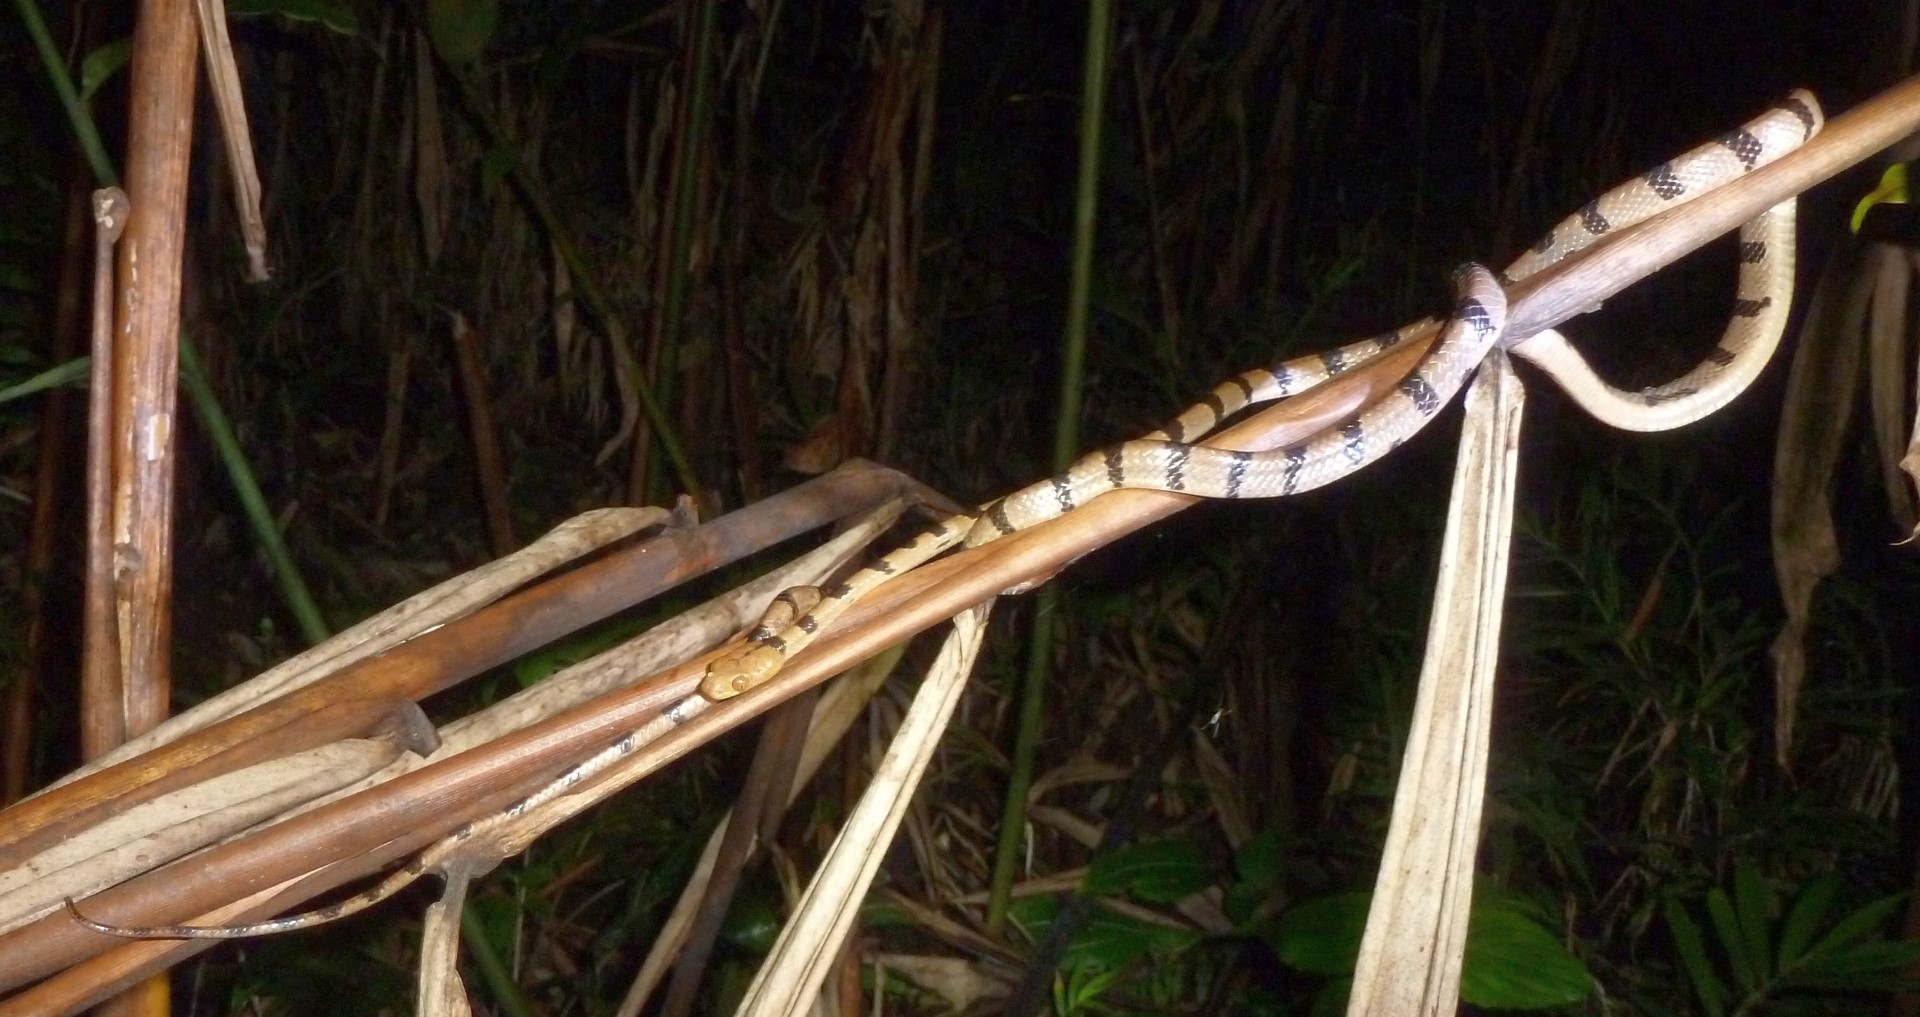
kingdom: Animalia
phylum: Chordata
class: Squamata
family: Pseudoxyrhophiidae
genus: Lycodryas
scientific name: Lycodryas gaimardi
